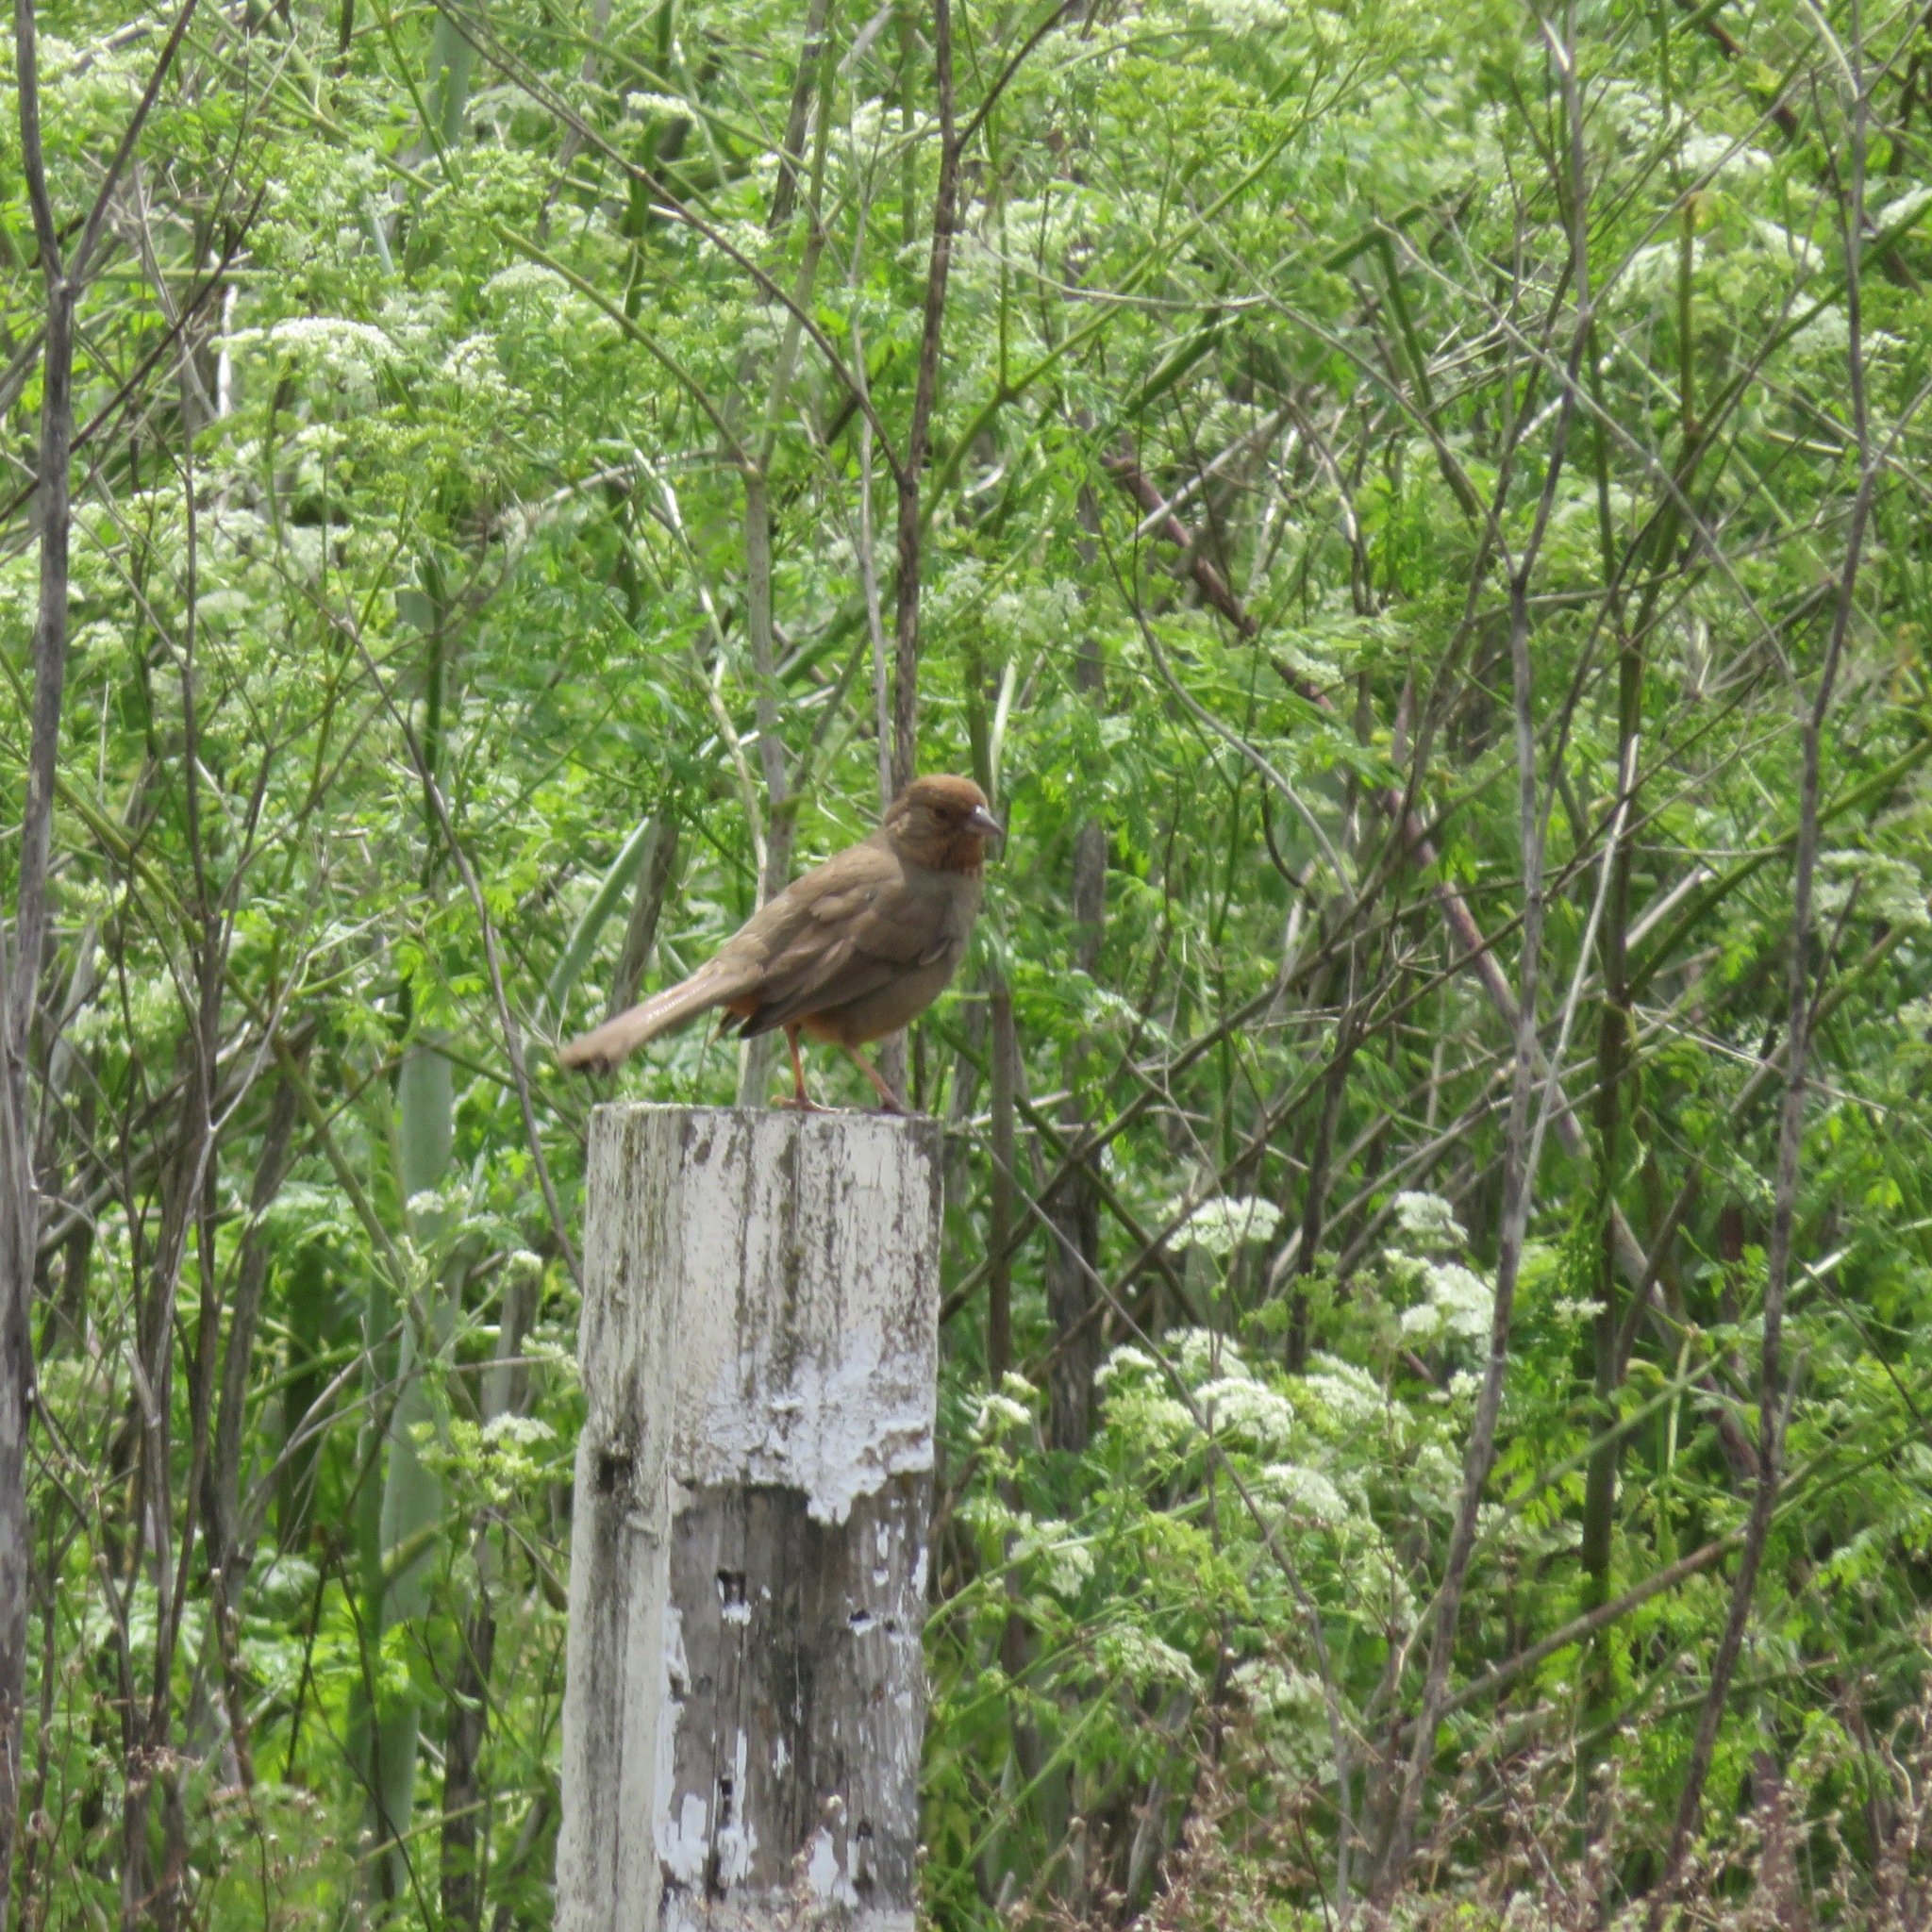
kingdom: Animalia
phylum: Chordata
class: Aves
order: Passeriformes
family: Passerellidae
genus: Melozone
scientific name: Melozone crissalis
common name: California towhee
